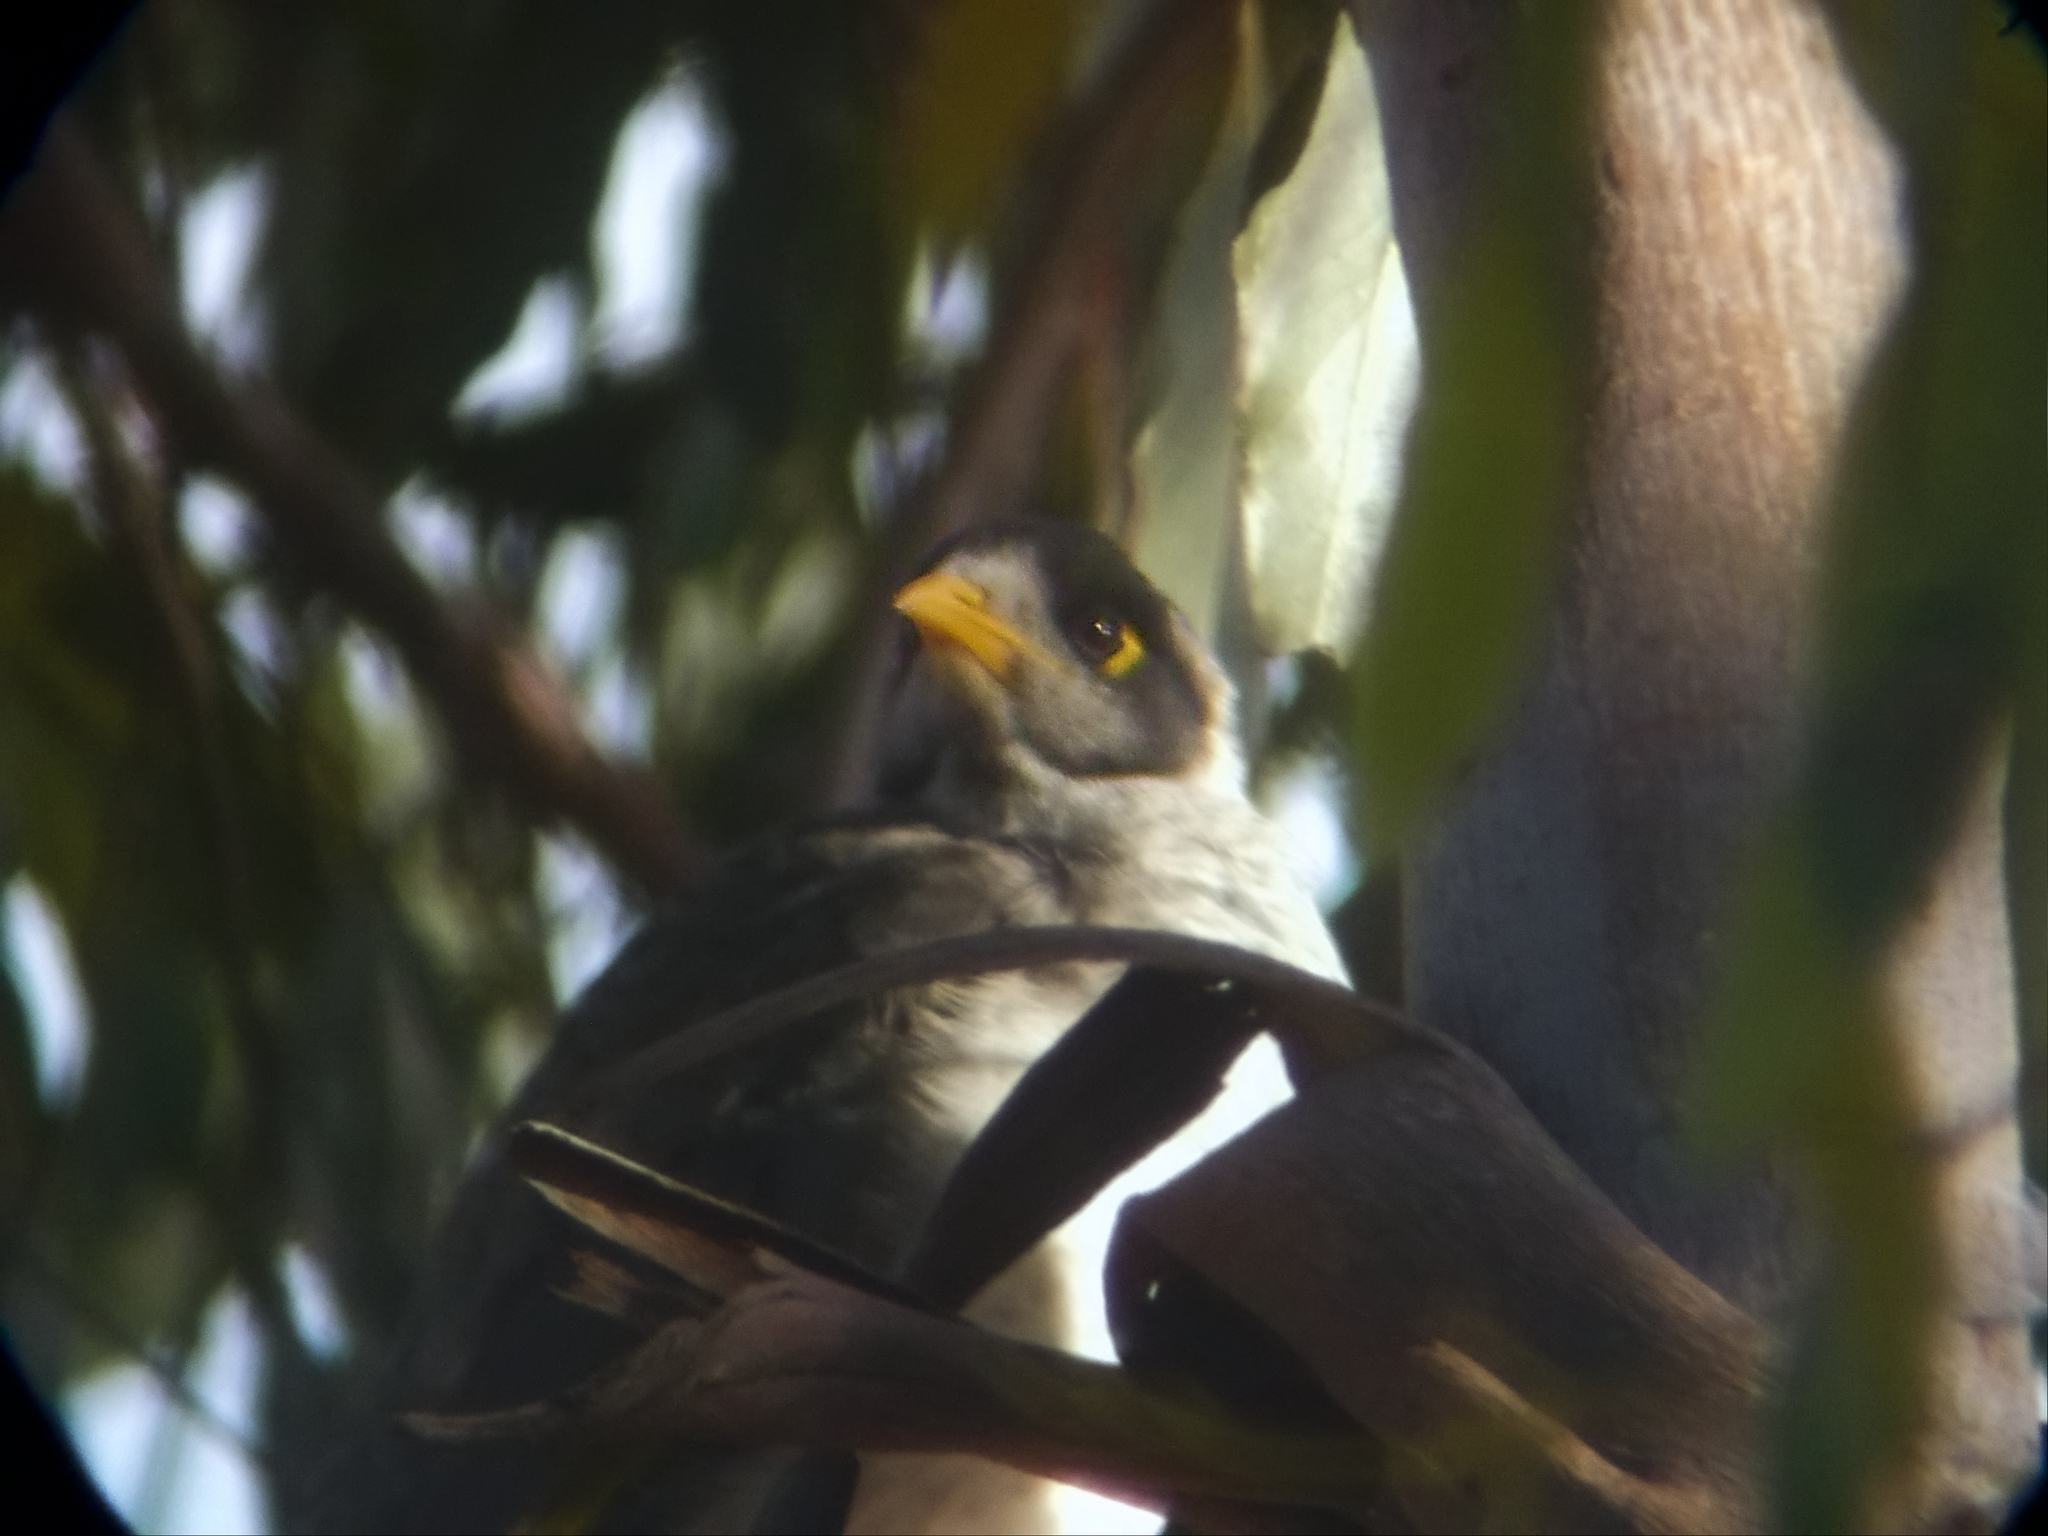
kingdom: Animalia
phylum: Chordata
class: Aves
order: Passeriformes
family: Meliphagidae
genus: Manorina
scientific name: Manorina melanocephala
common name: Noisy miner
